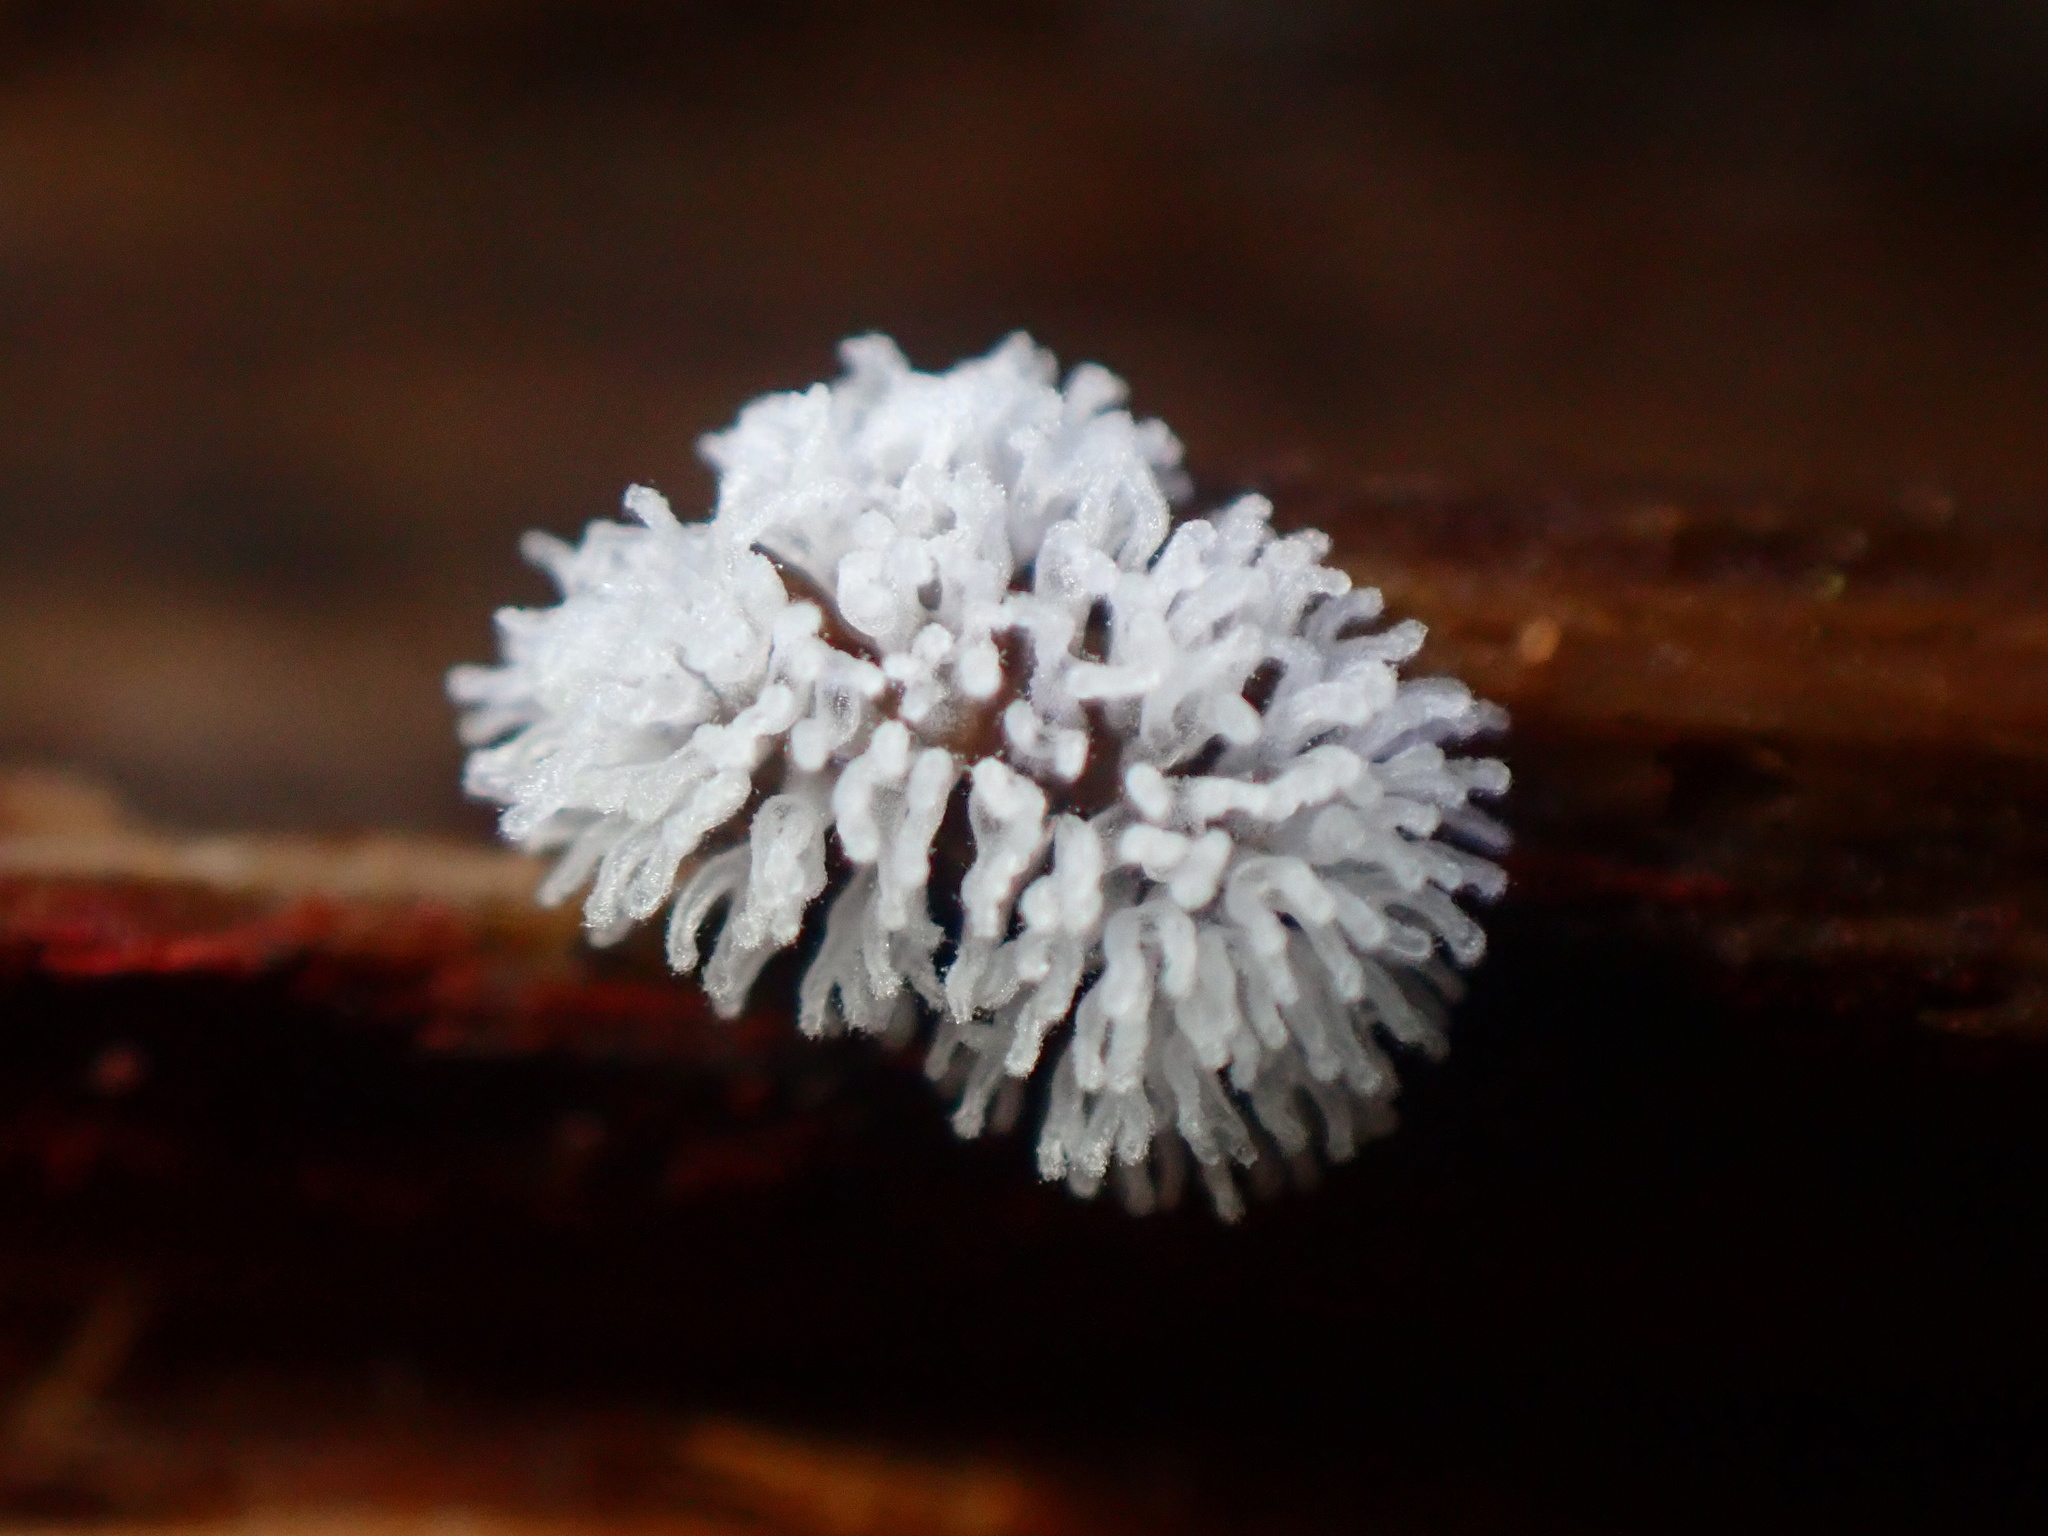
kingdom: Protozoa
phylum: Mycetozoa
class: Protosteliomycetes
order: Ceratiomyxales
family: Ceratiomyxaceae
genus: Ceratiomyxa
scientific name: Ceratiomyxa fruticulosa
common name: Honeycomb coral slime mold
